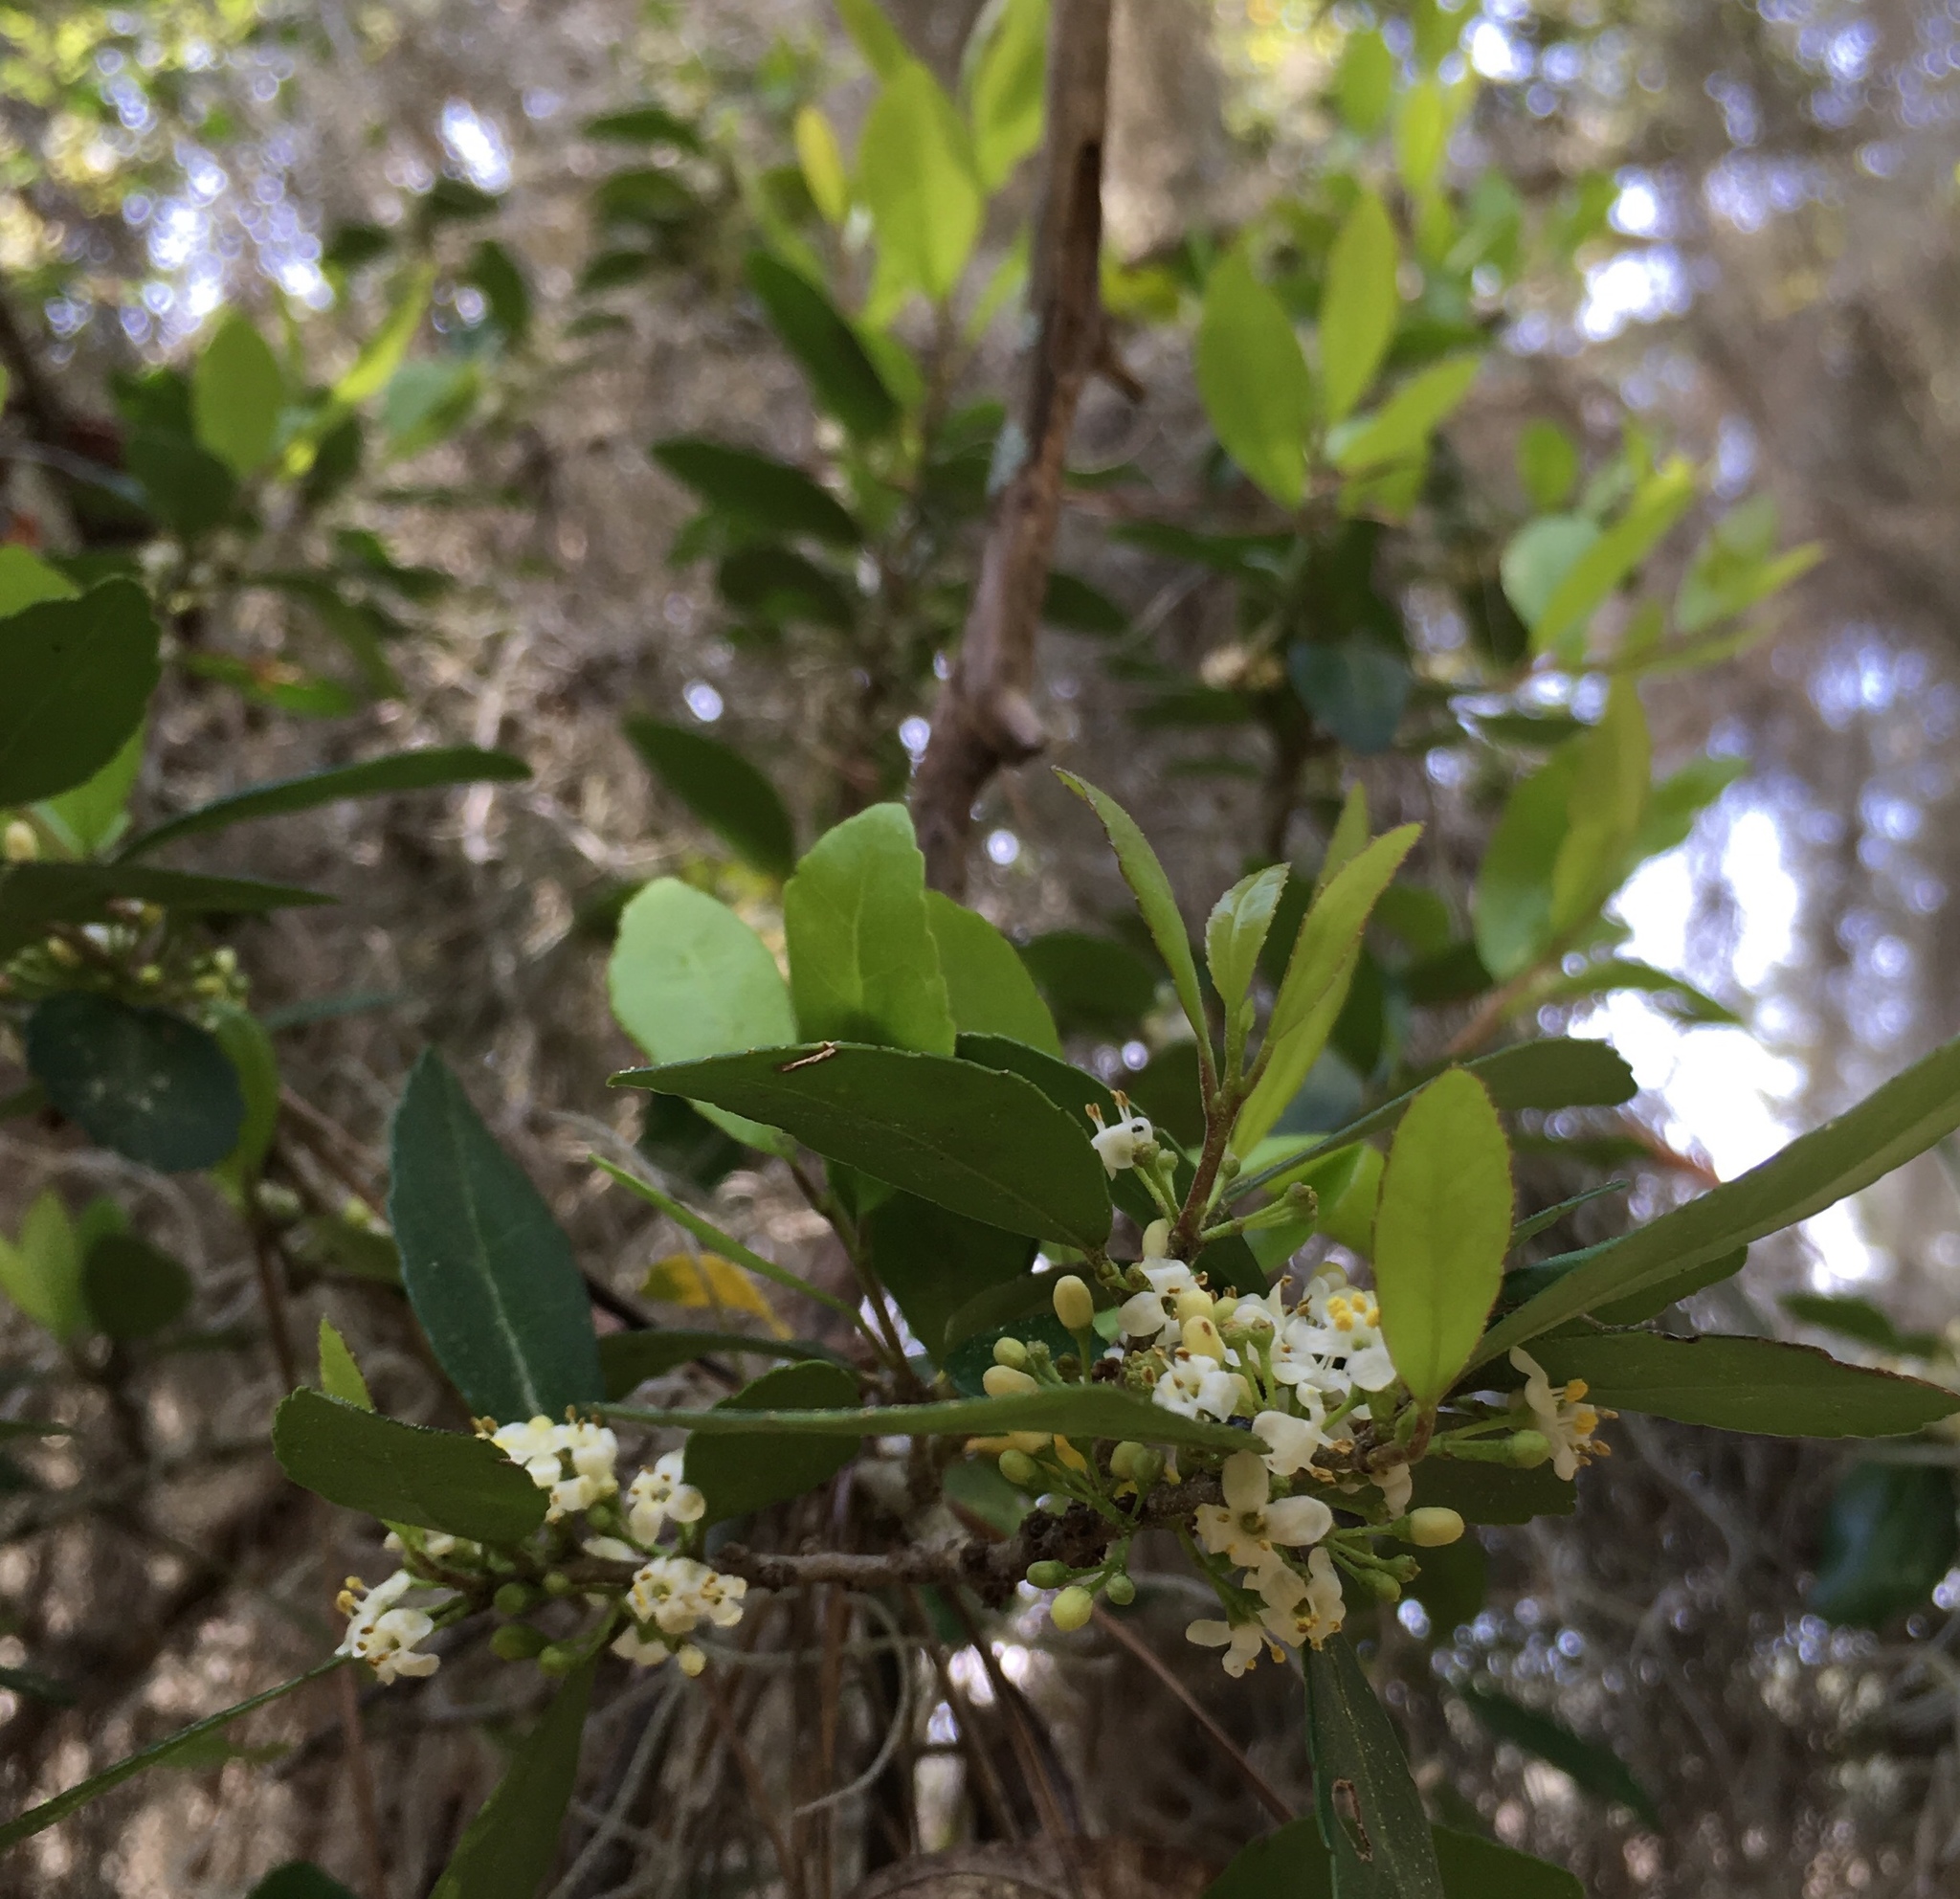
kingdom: Plantae
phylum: Tracheophyta
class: Magnoliopsida
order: Aquifoliales
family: Aquifoliaceae
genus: Ilex
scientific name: Ilex vomitoria
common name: Yaupon holly
